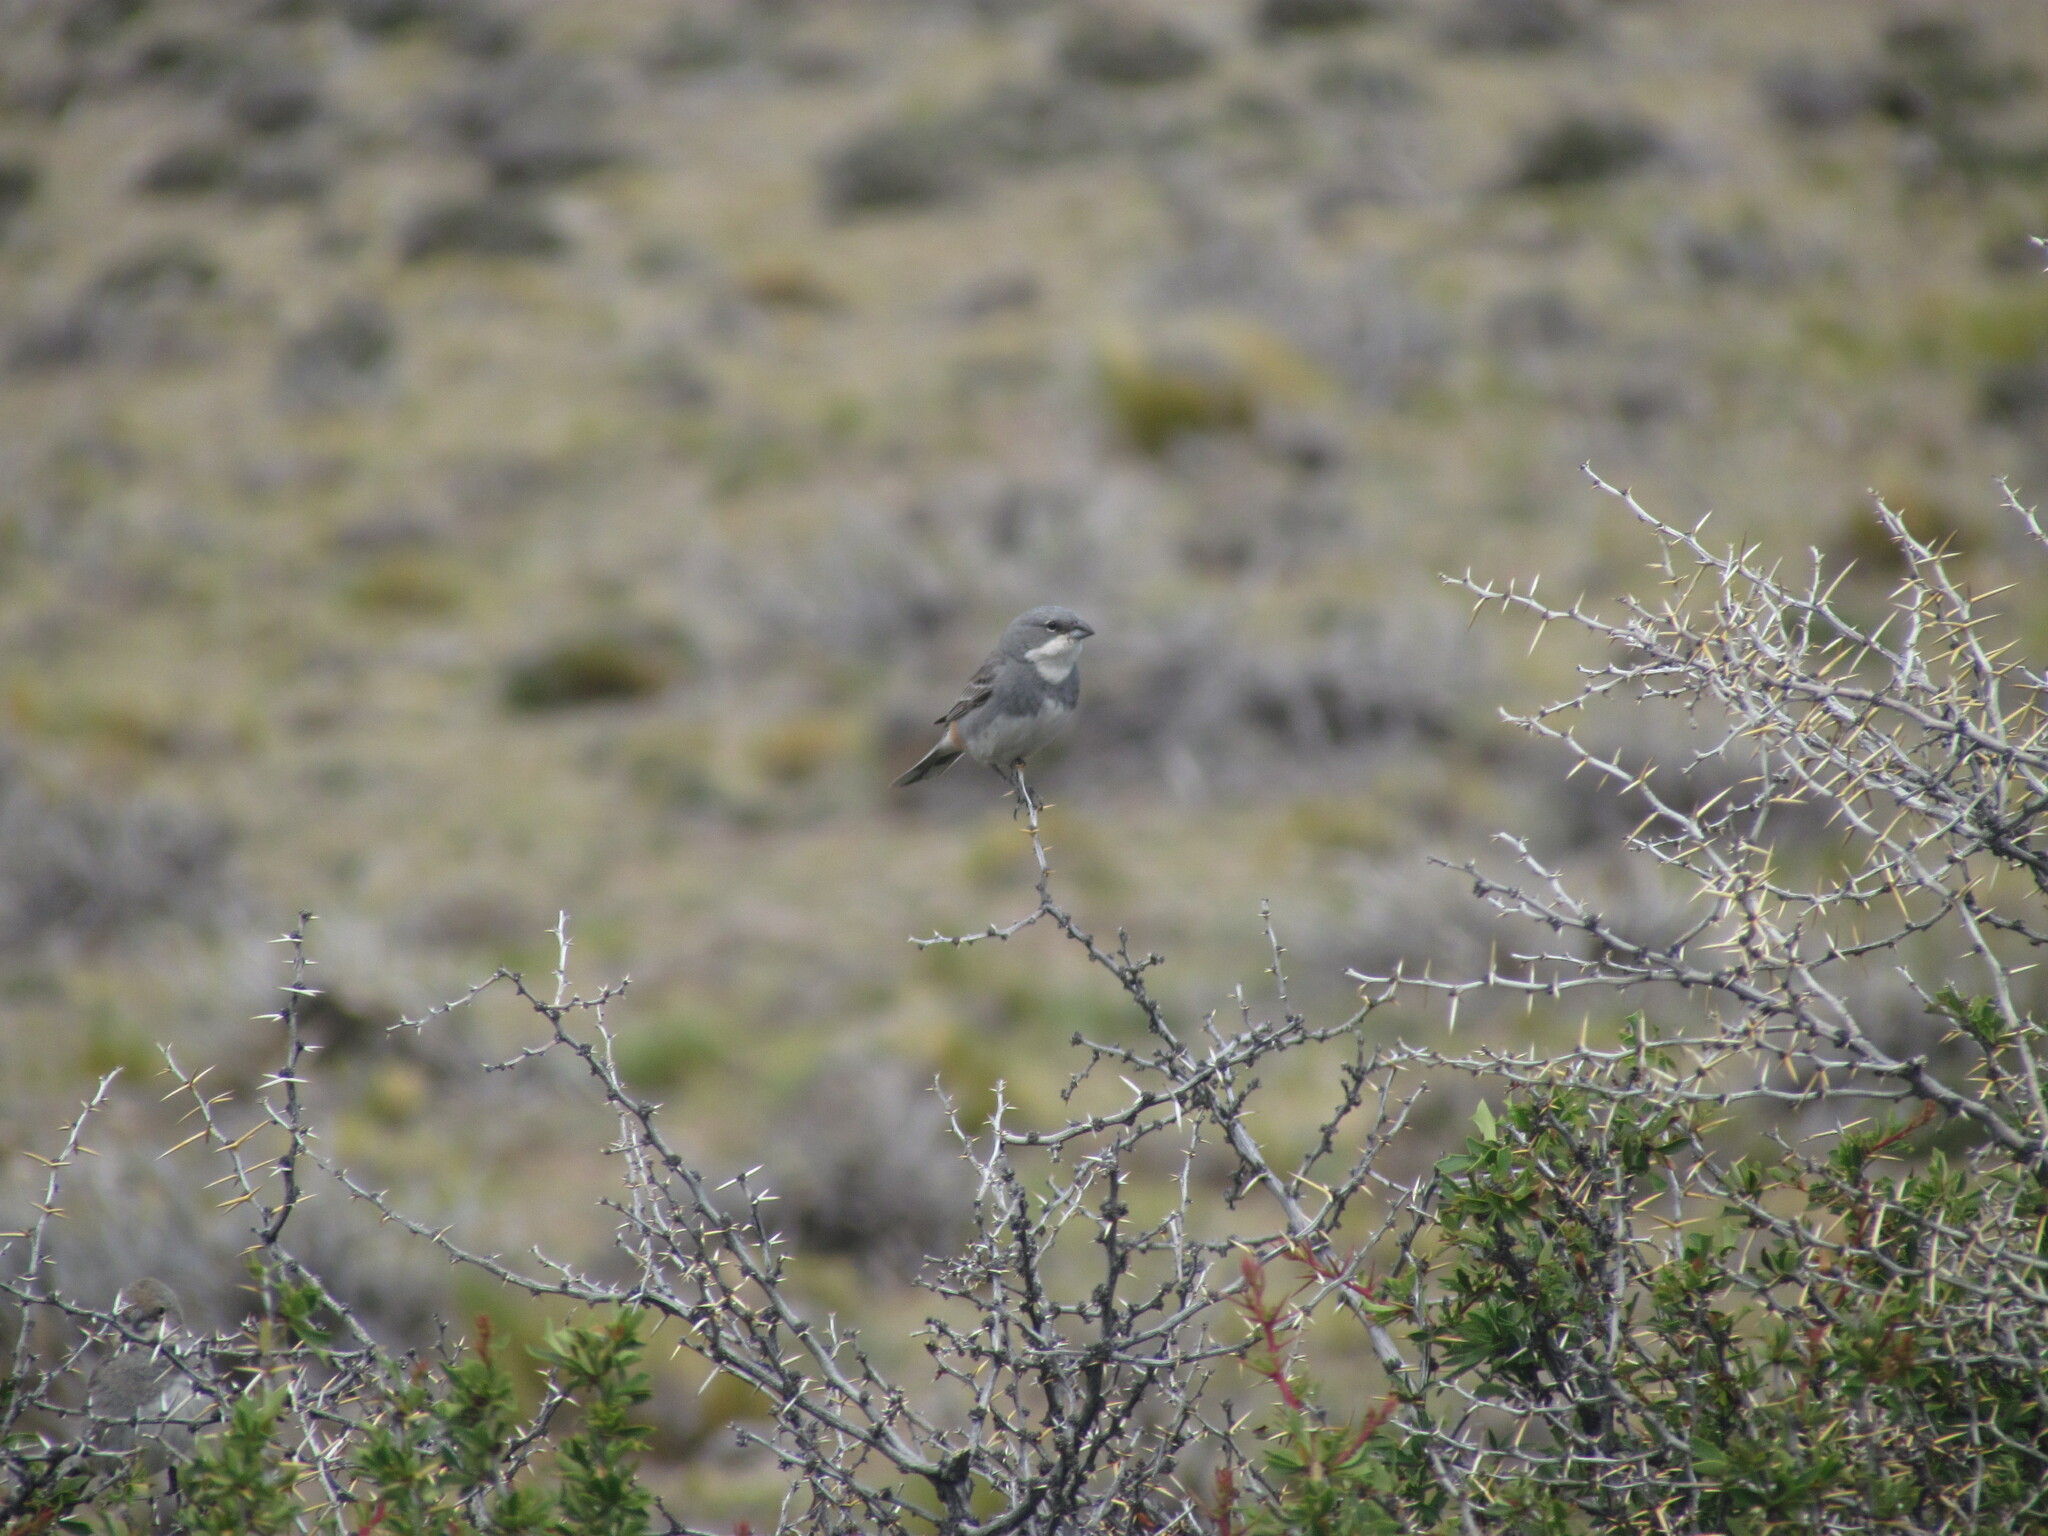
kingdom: Animalia
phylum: Chordata
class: Aves
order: Passeriformes
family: Thraupidae
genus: Diuca
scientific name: Diuca diuca
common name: Common diuca finch
